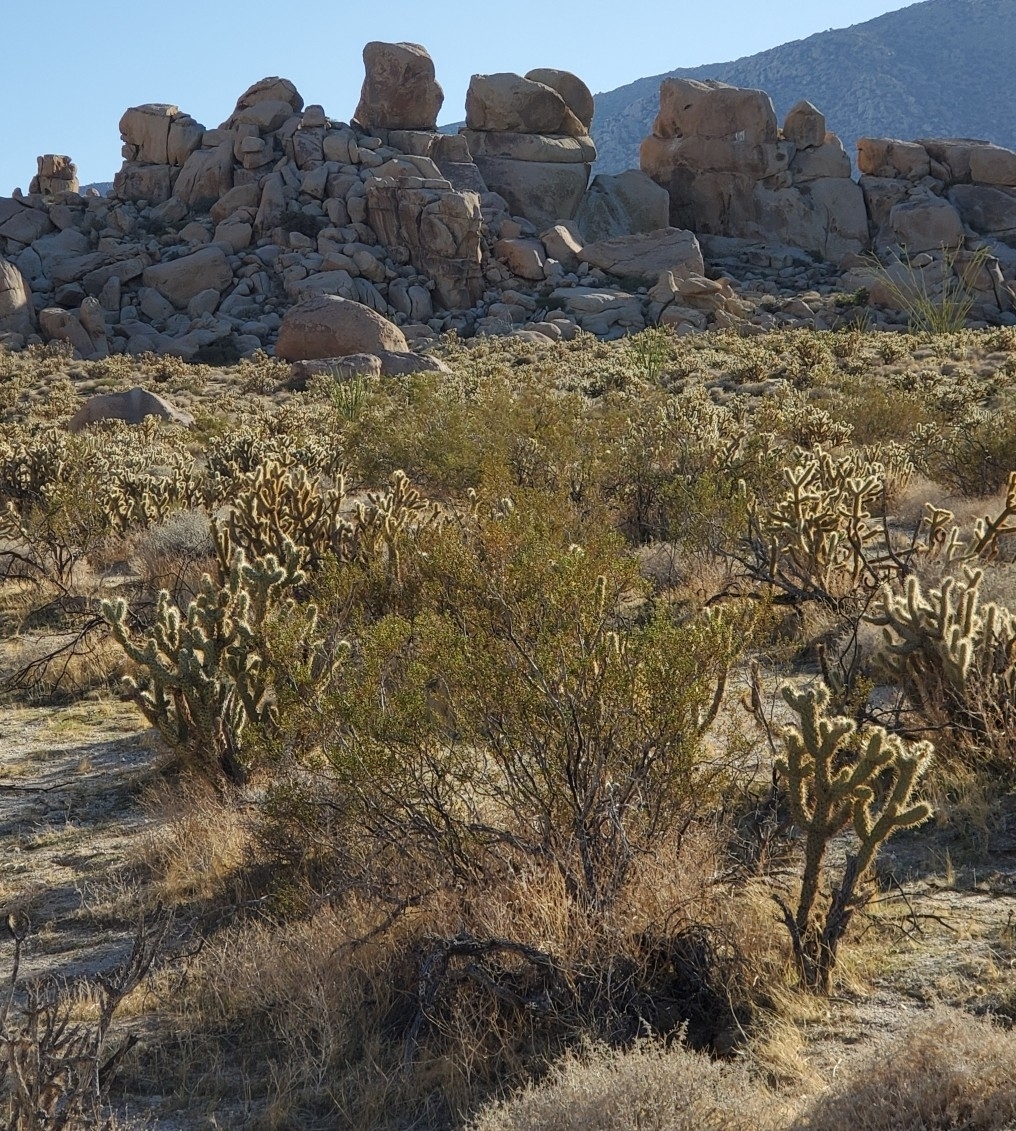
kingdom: Plantae
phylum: Tracheophyta
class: Magnoliopsida
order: Zygophyllales
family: Zygophyllaceae
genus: Larrea
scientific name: Larrea tridentata
